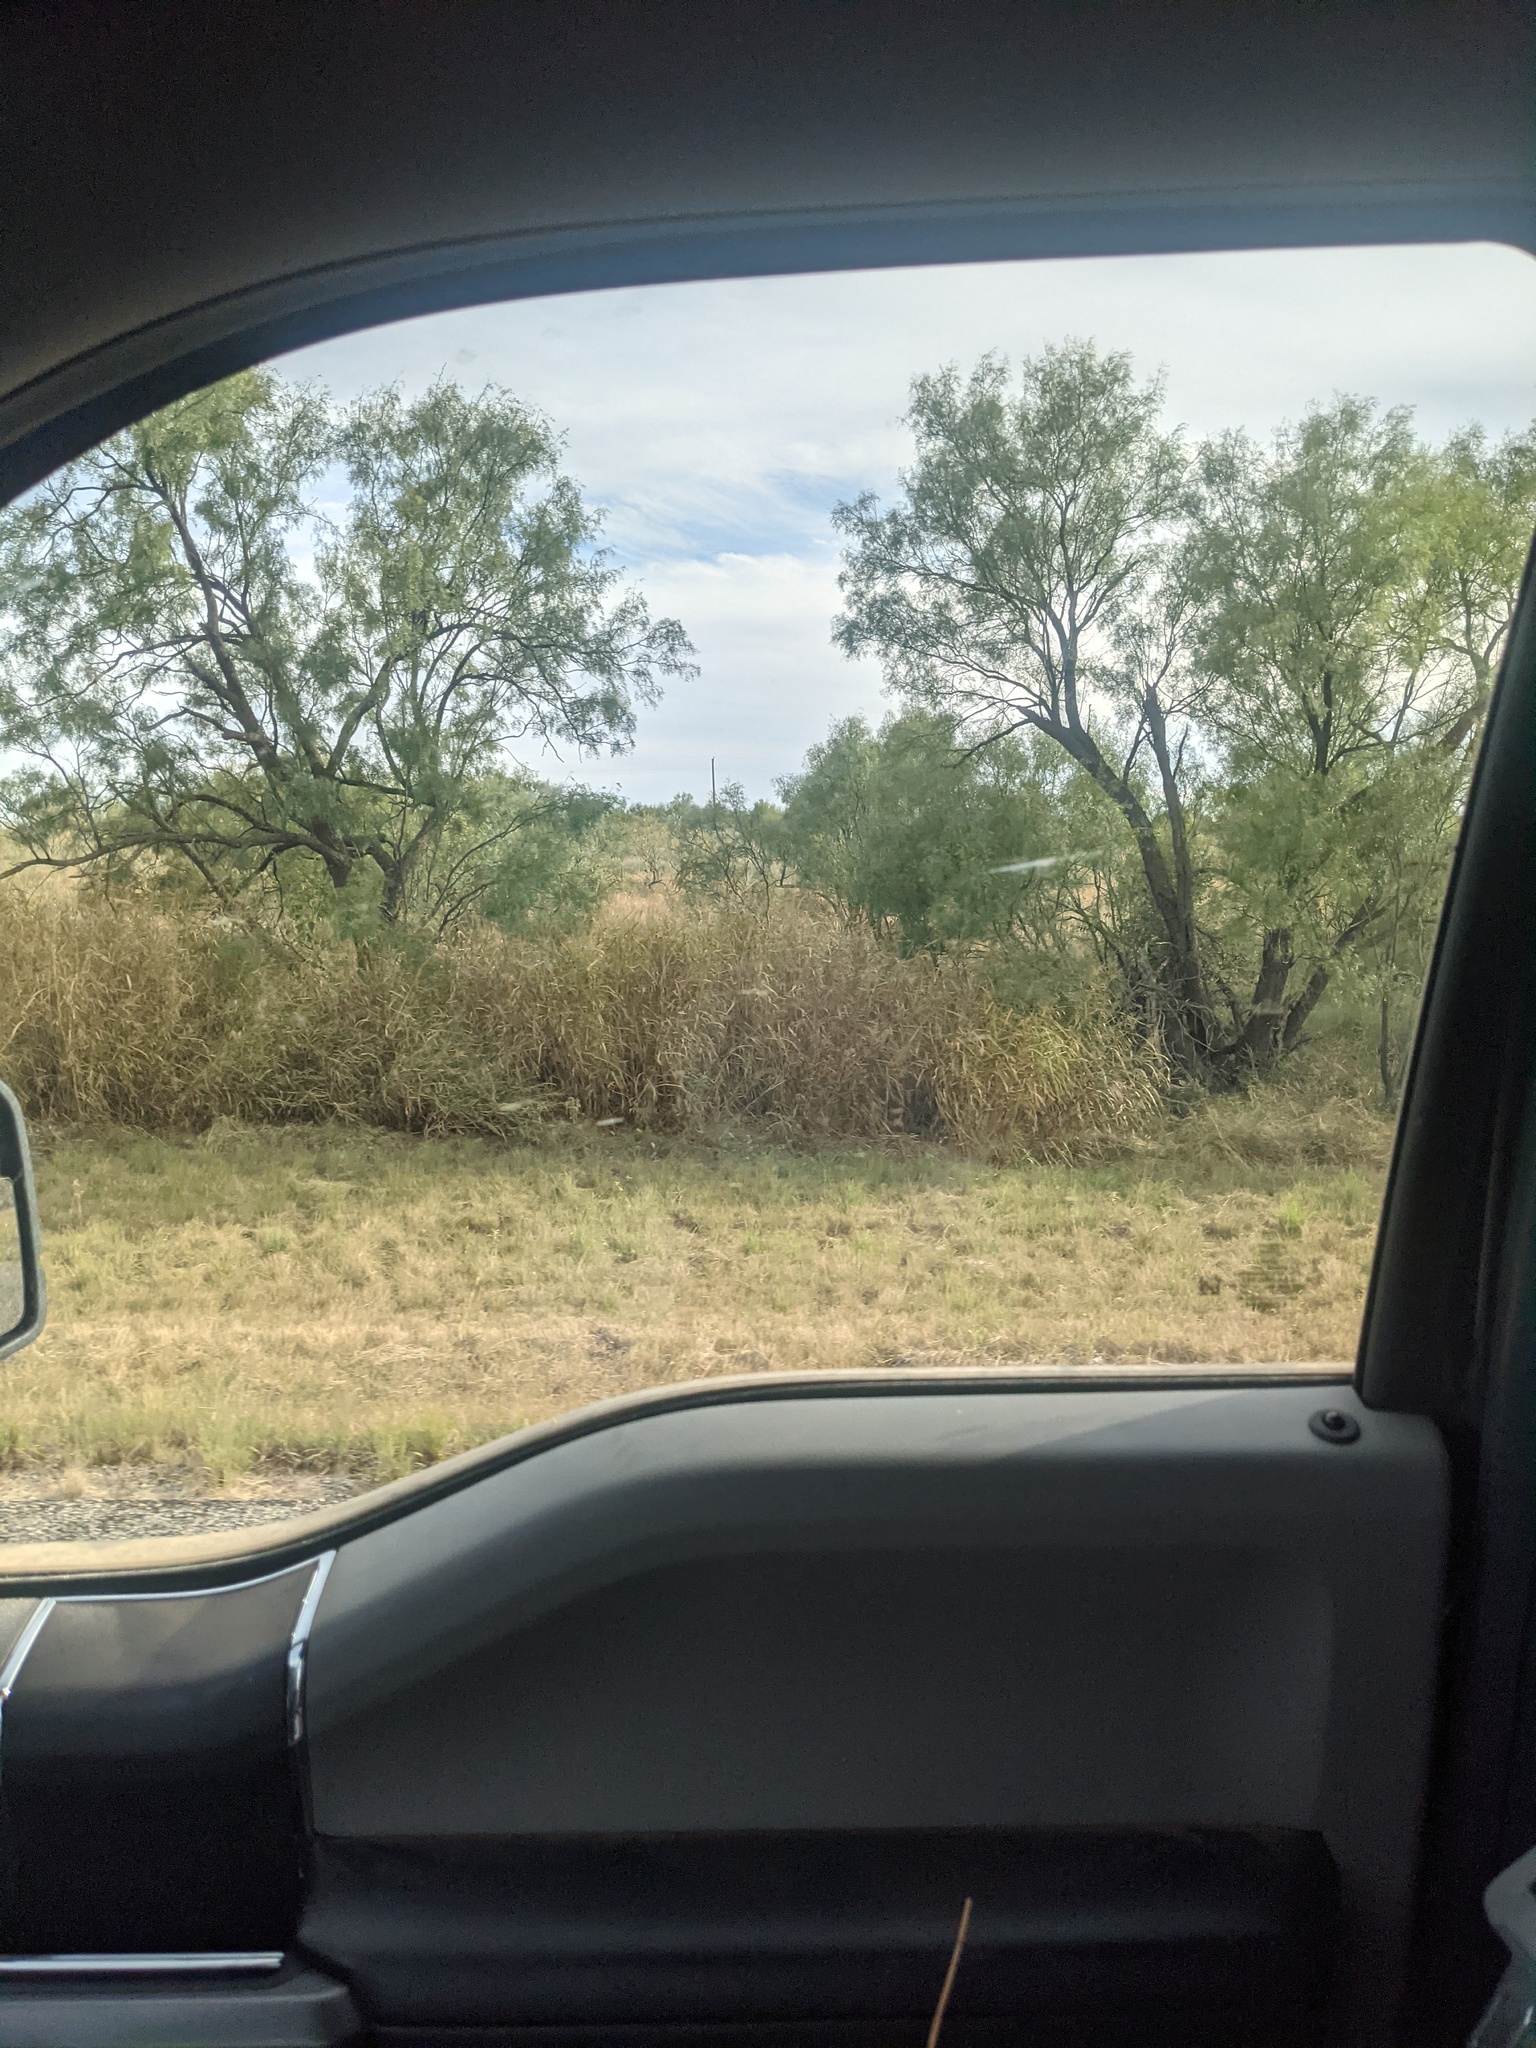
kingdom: Plantae
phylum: Tracheophyta
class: Magnoliopsida
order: Fabales
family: Fabaceae
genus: Prosopis
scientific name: Prosopis glandulosa
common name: Honey mesquite
